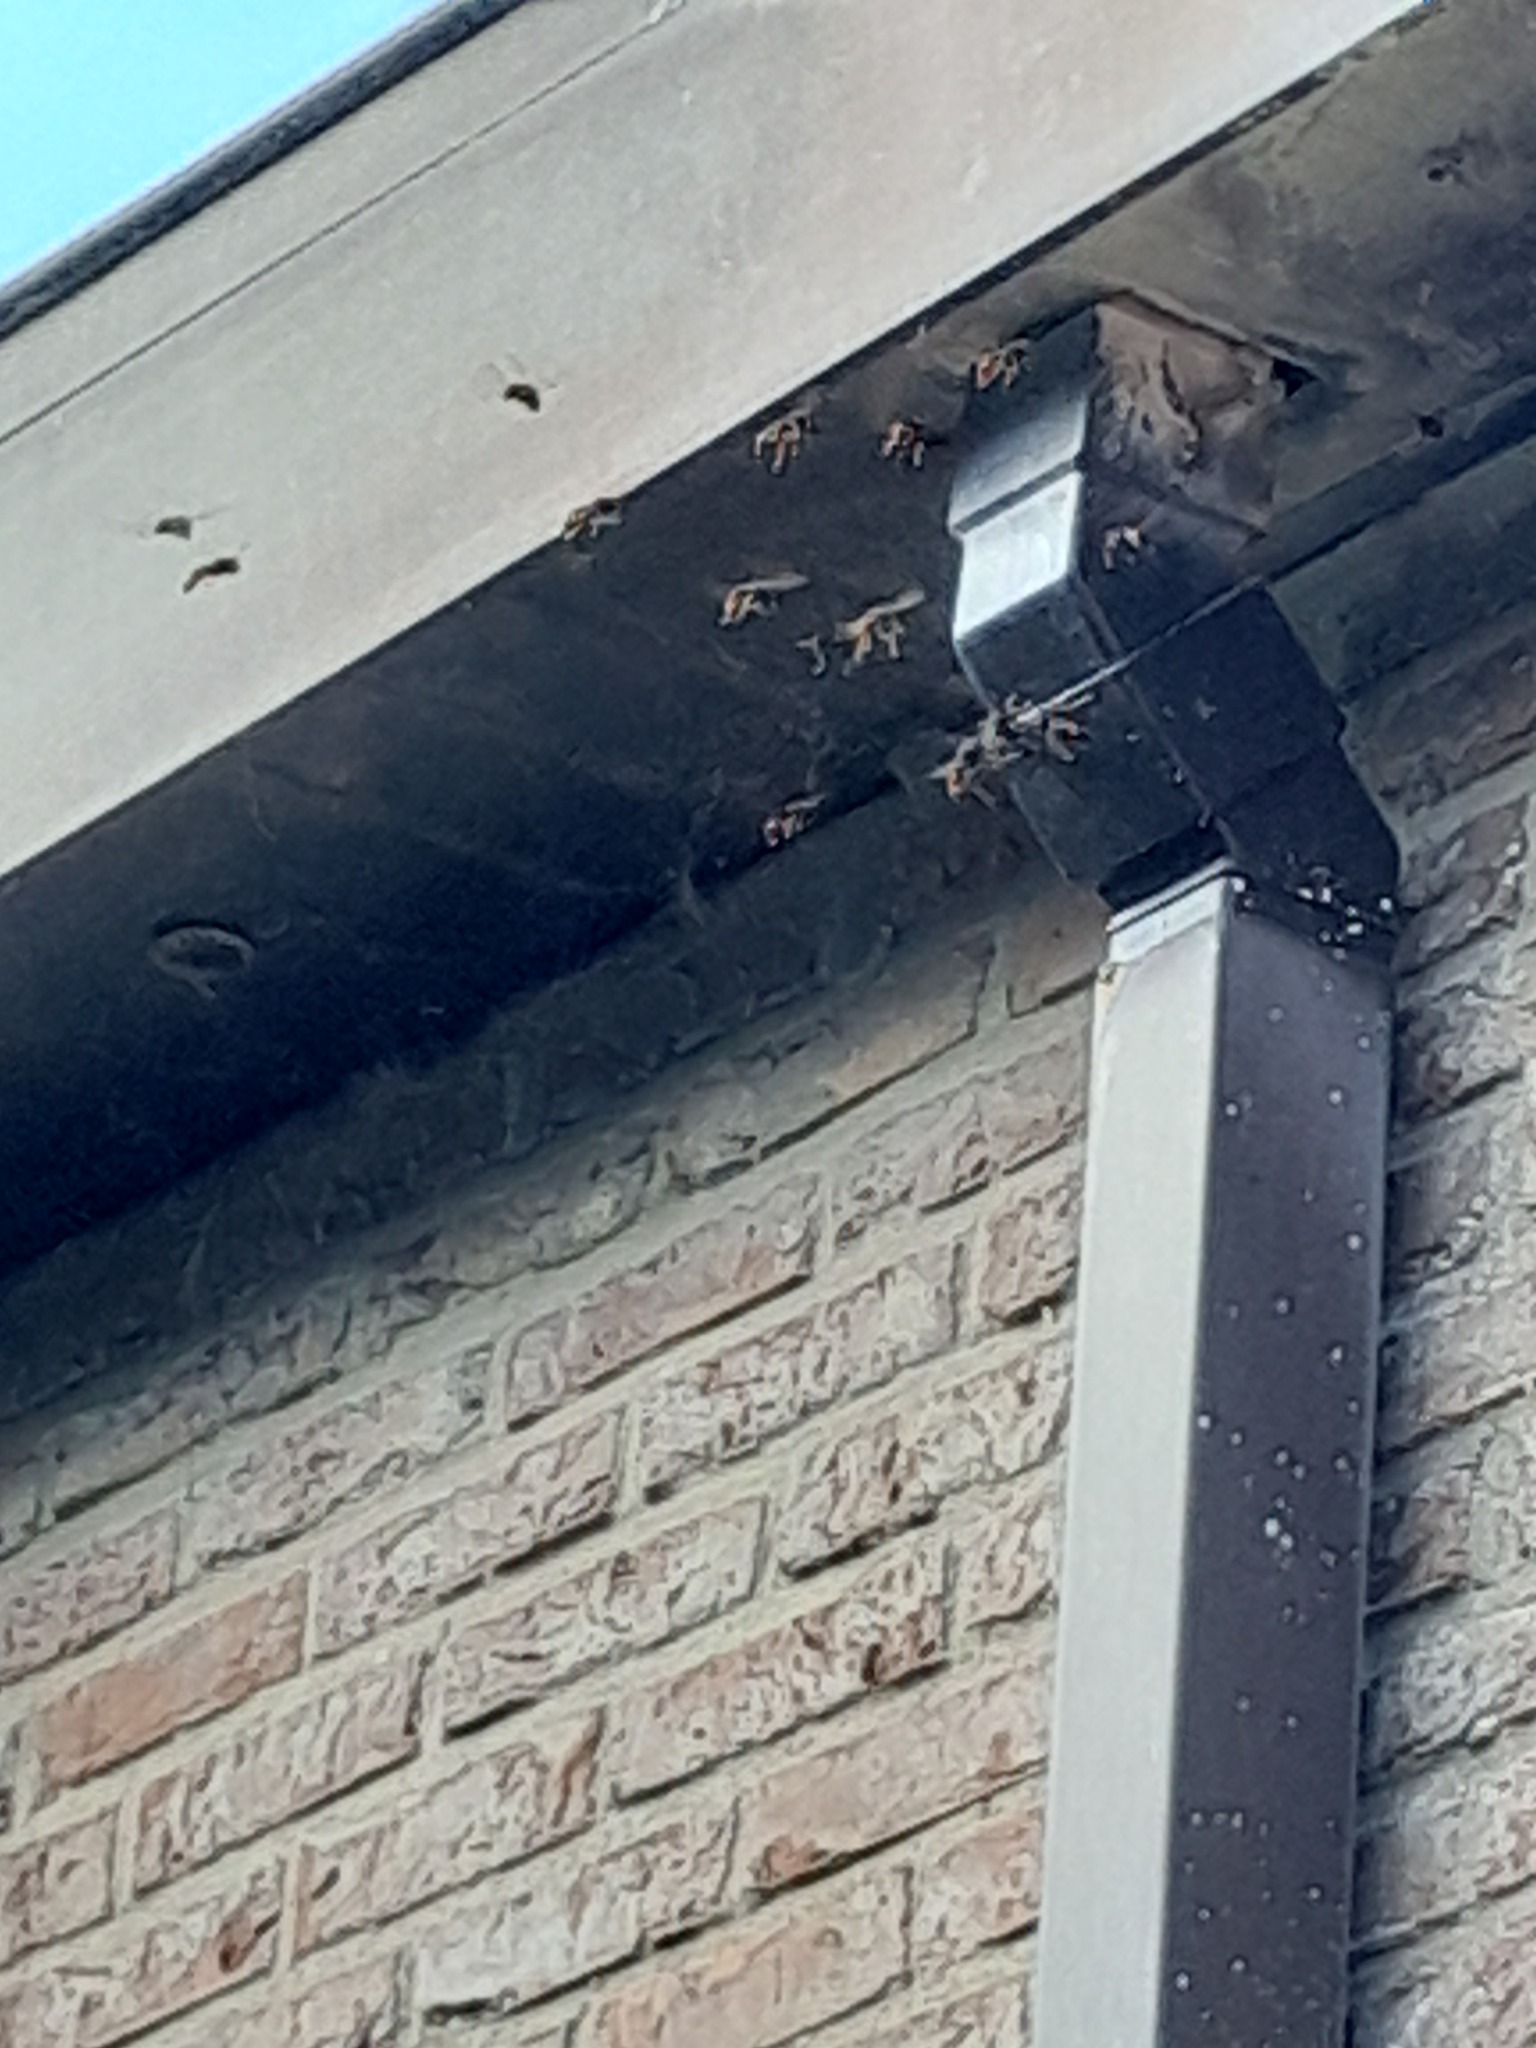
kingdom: Animalia
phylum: Arthropoda
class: Insecta
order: Hymenoptera
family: Vespidae
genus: Vespa
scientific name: Vespa velutina
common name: Asian hornet
